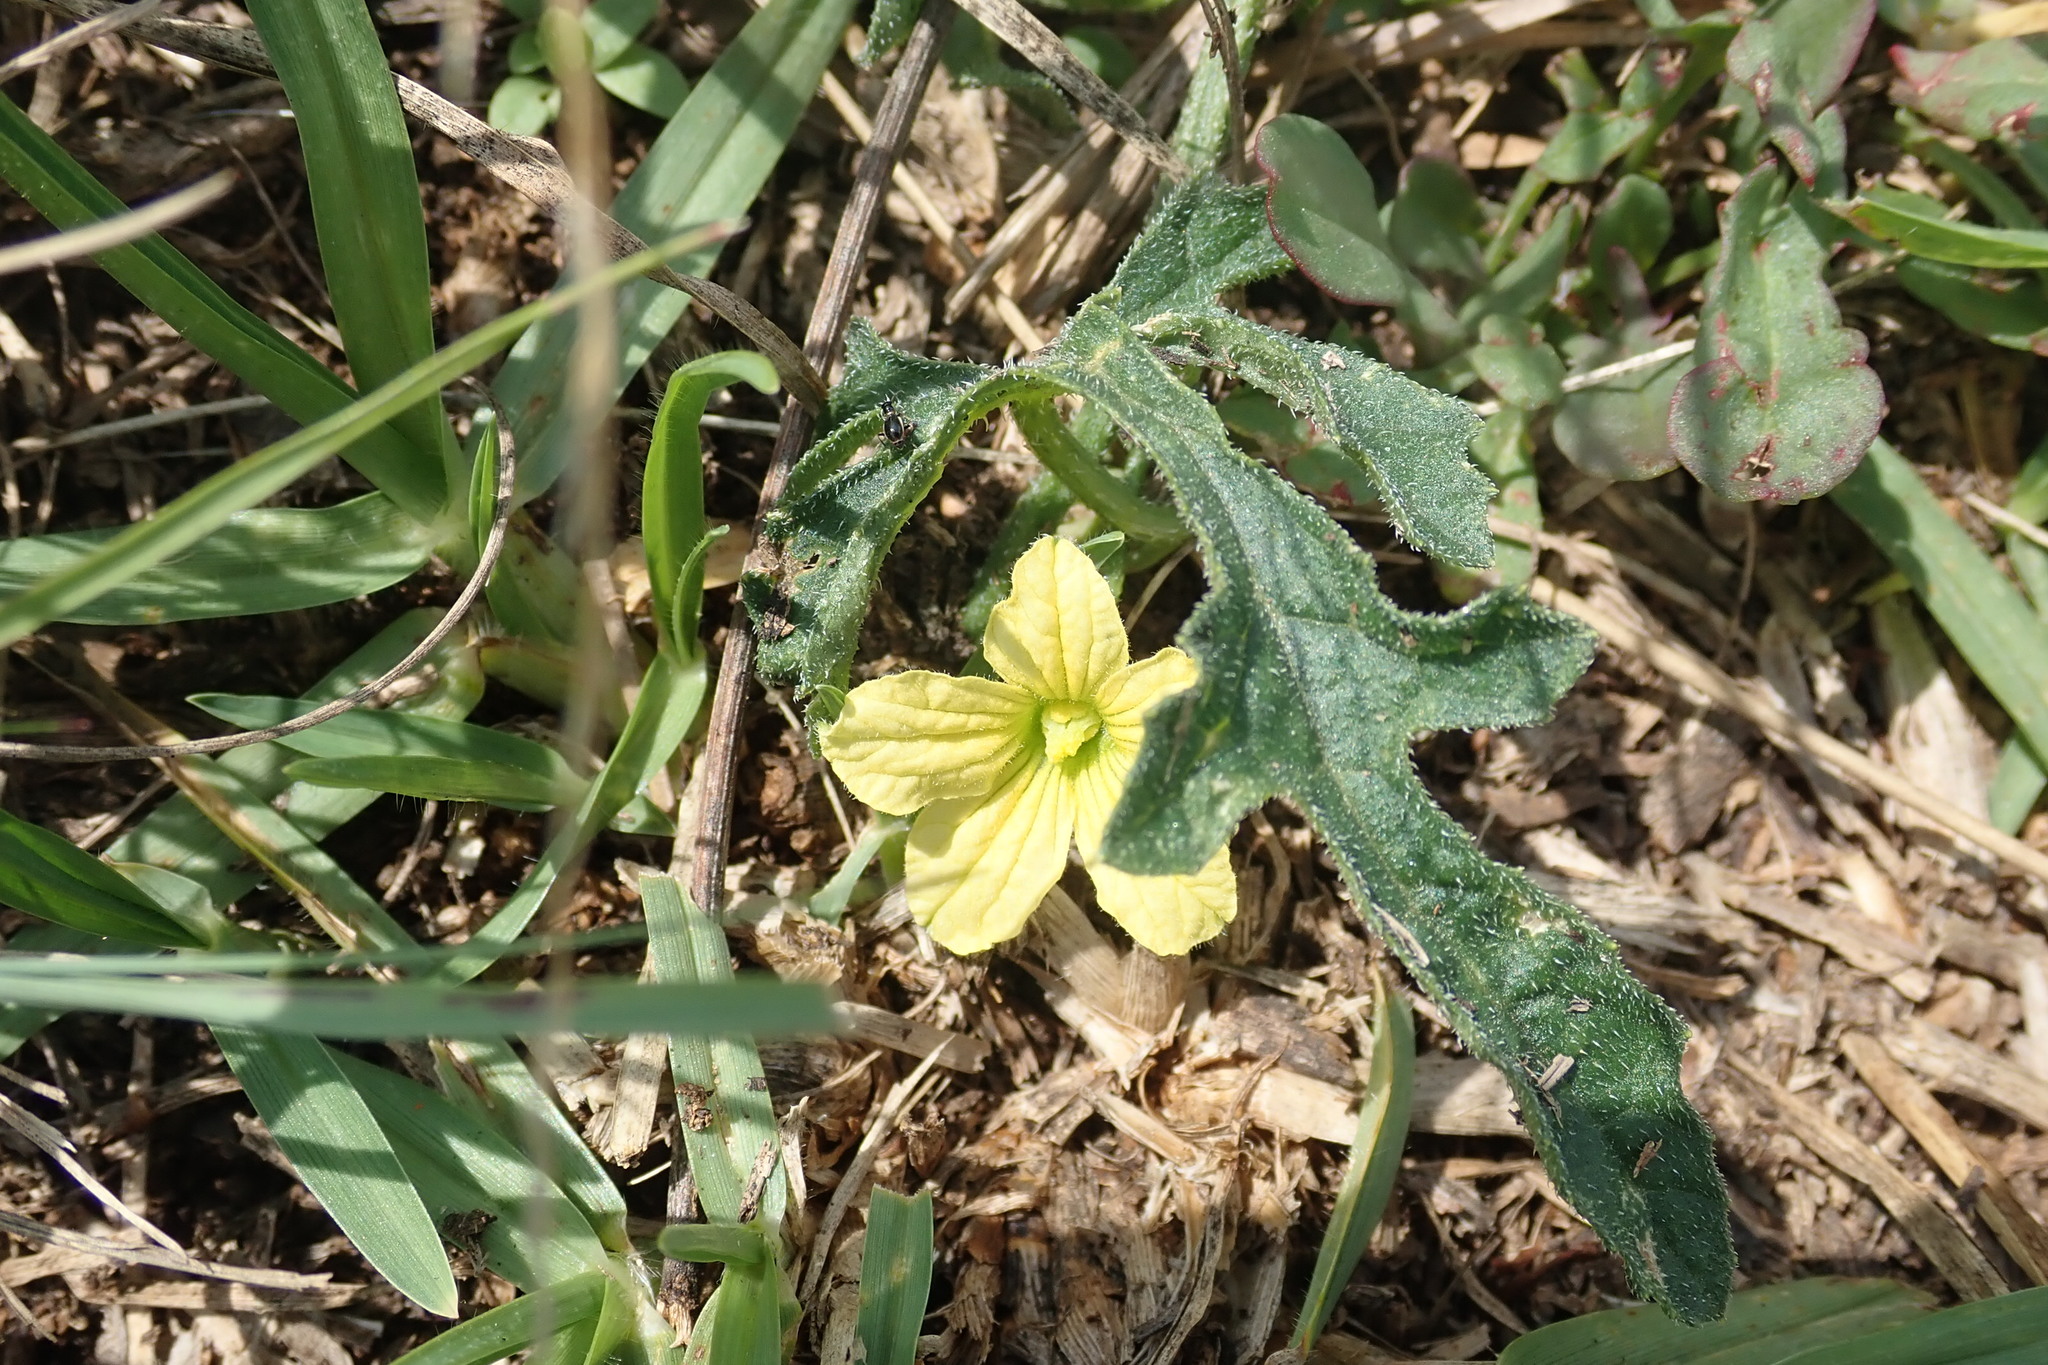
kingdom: Plantae
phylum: Tracheophyta
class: Magnoliopsida
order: Cucurbitales
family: Cucurbitaceae
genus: Cucumis
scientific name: Cucumis zeyheri
